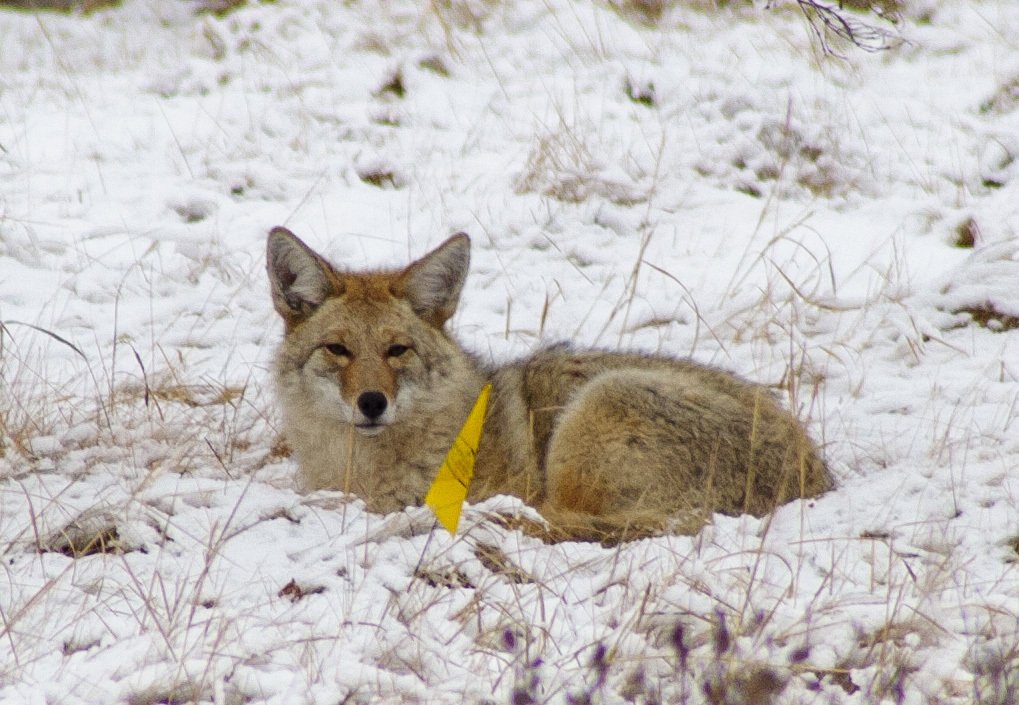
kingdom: Animalia
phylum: Chordata
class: Mammalia
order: Carnivora
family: Canidae
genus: Canis
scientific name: Canis latrans
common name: Coyote
